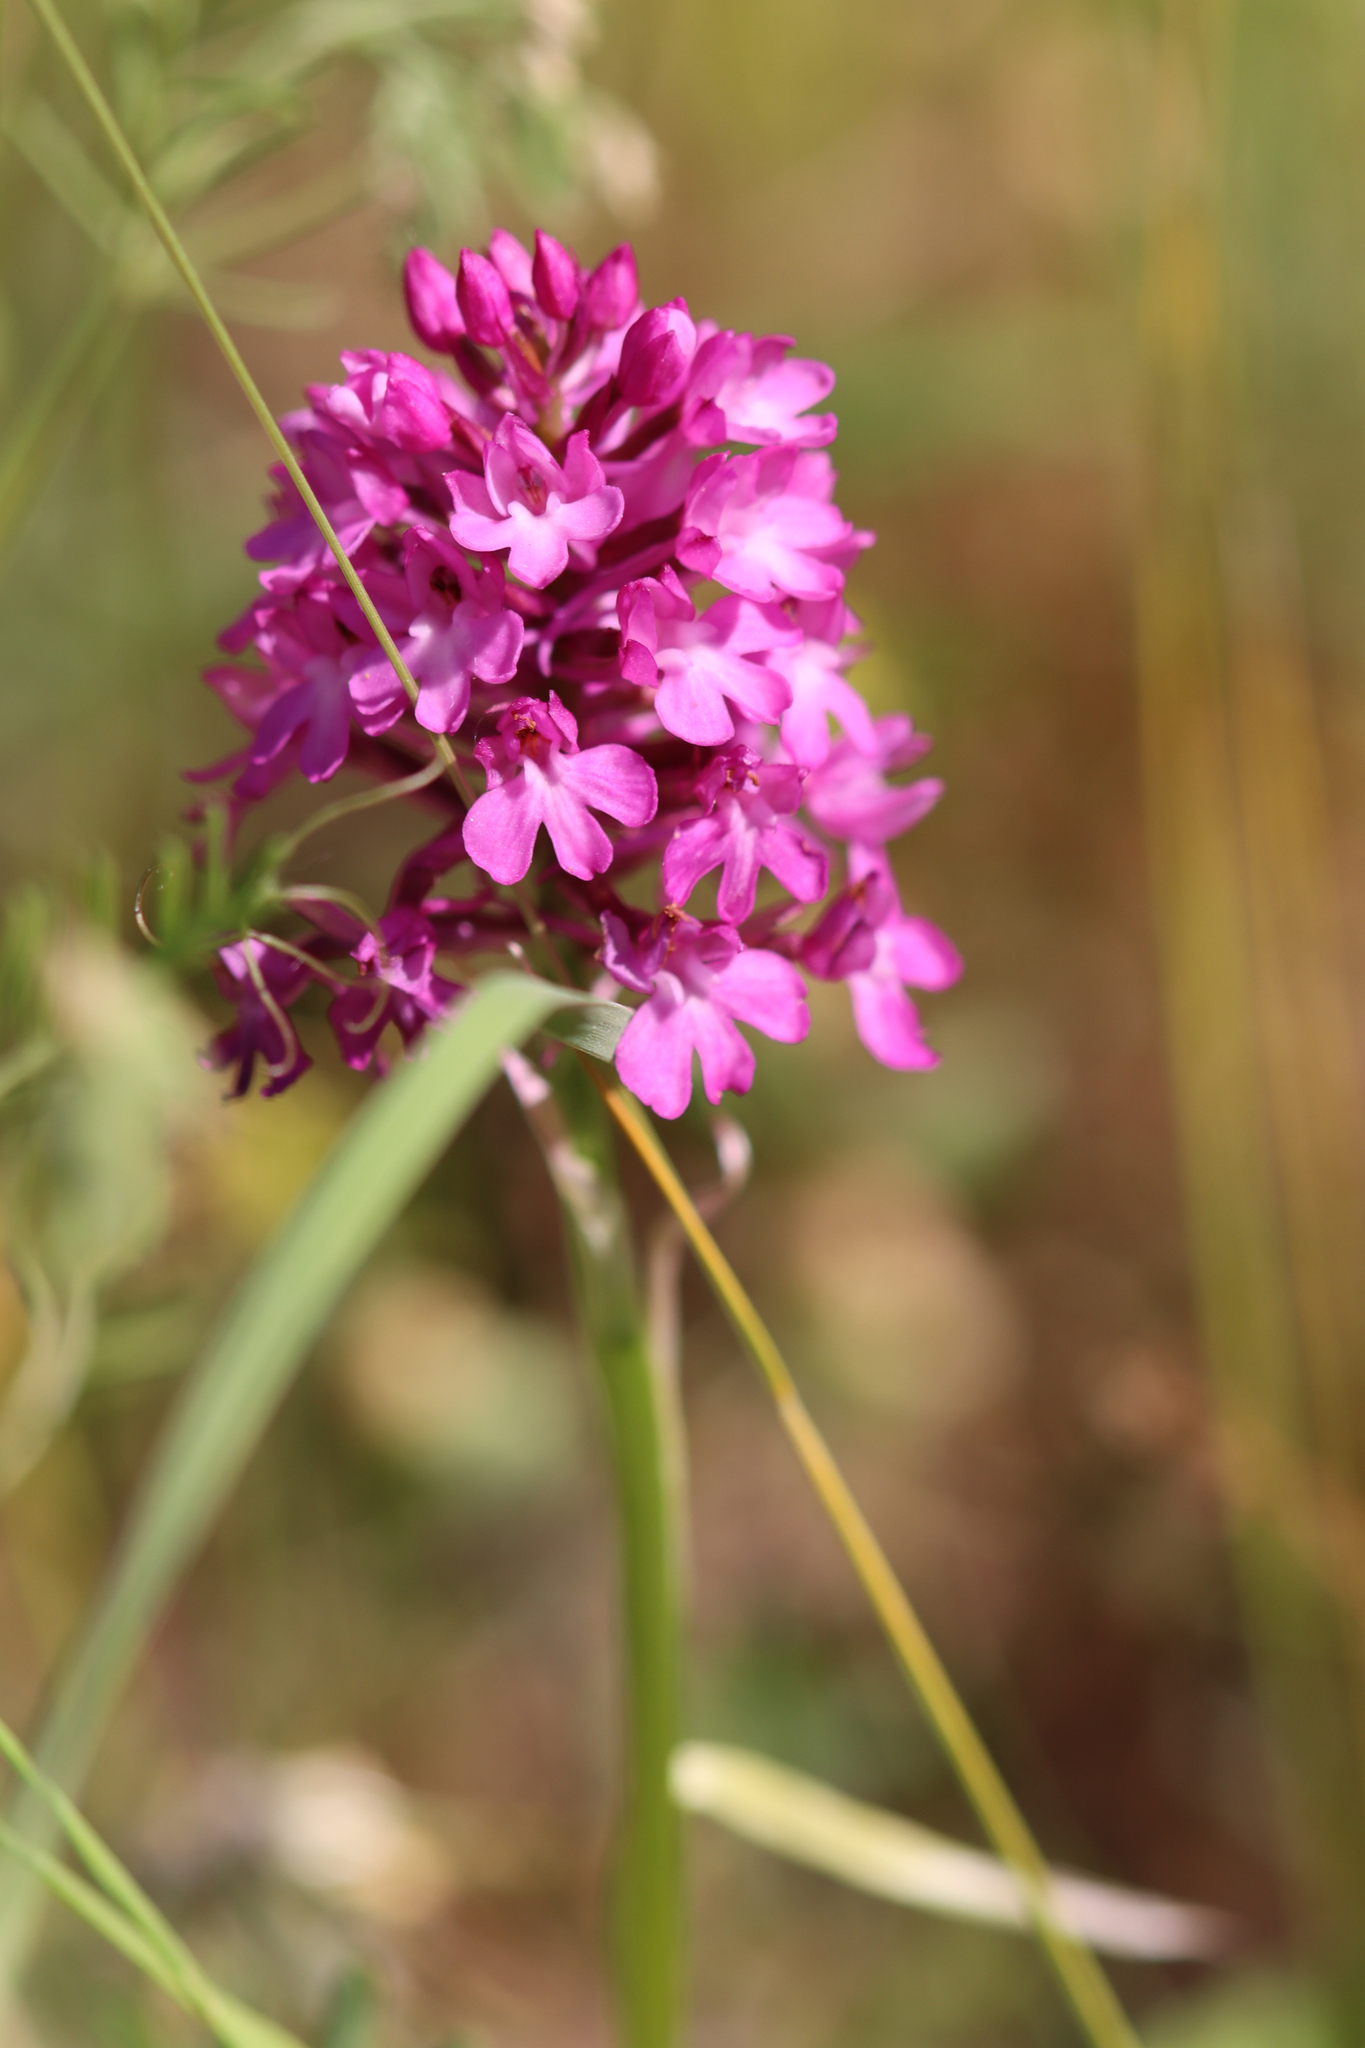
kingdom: Plantae
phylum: Tracheophyta
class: Liliopsida
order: Asparagales
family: Orchidaceae
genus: Anacamptis
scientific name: Anacamptis pyramidalis
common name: Pyramidal orchid
